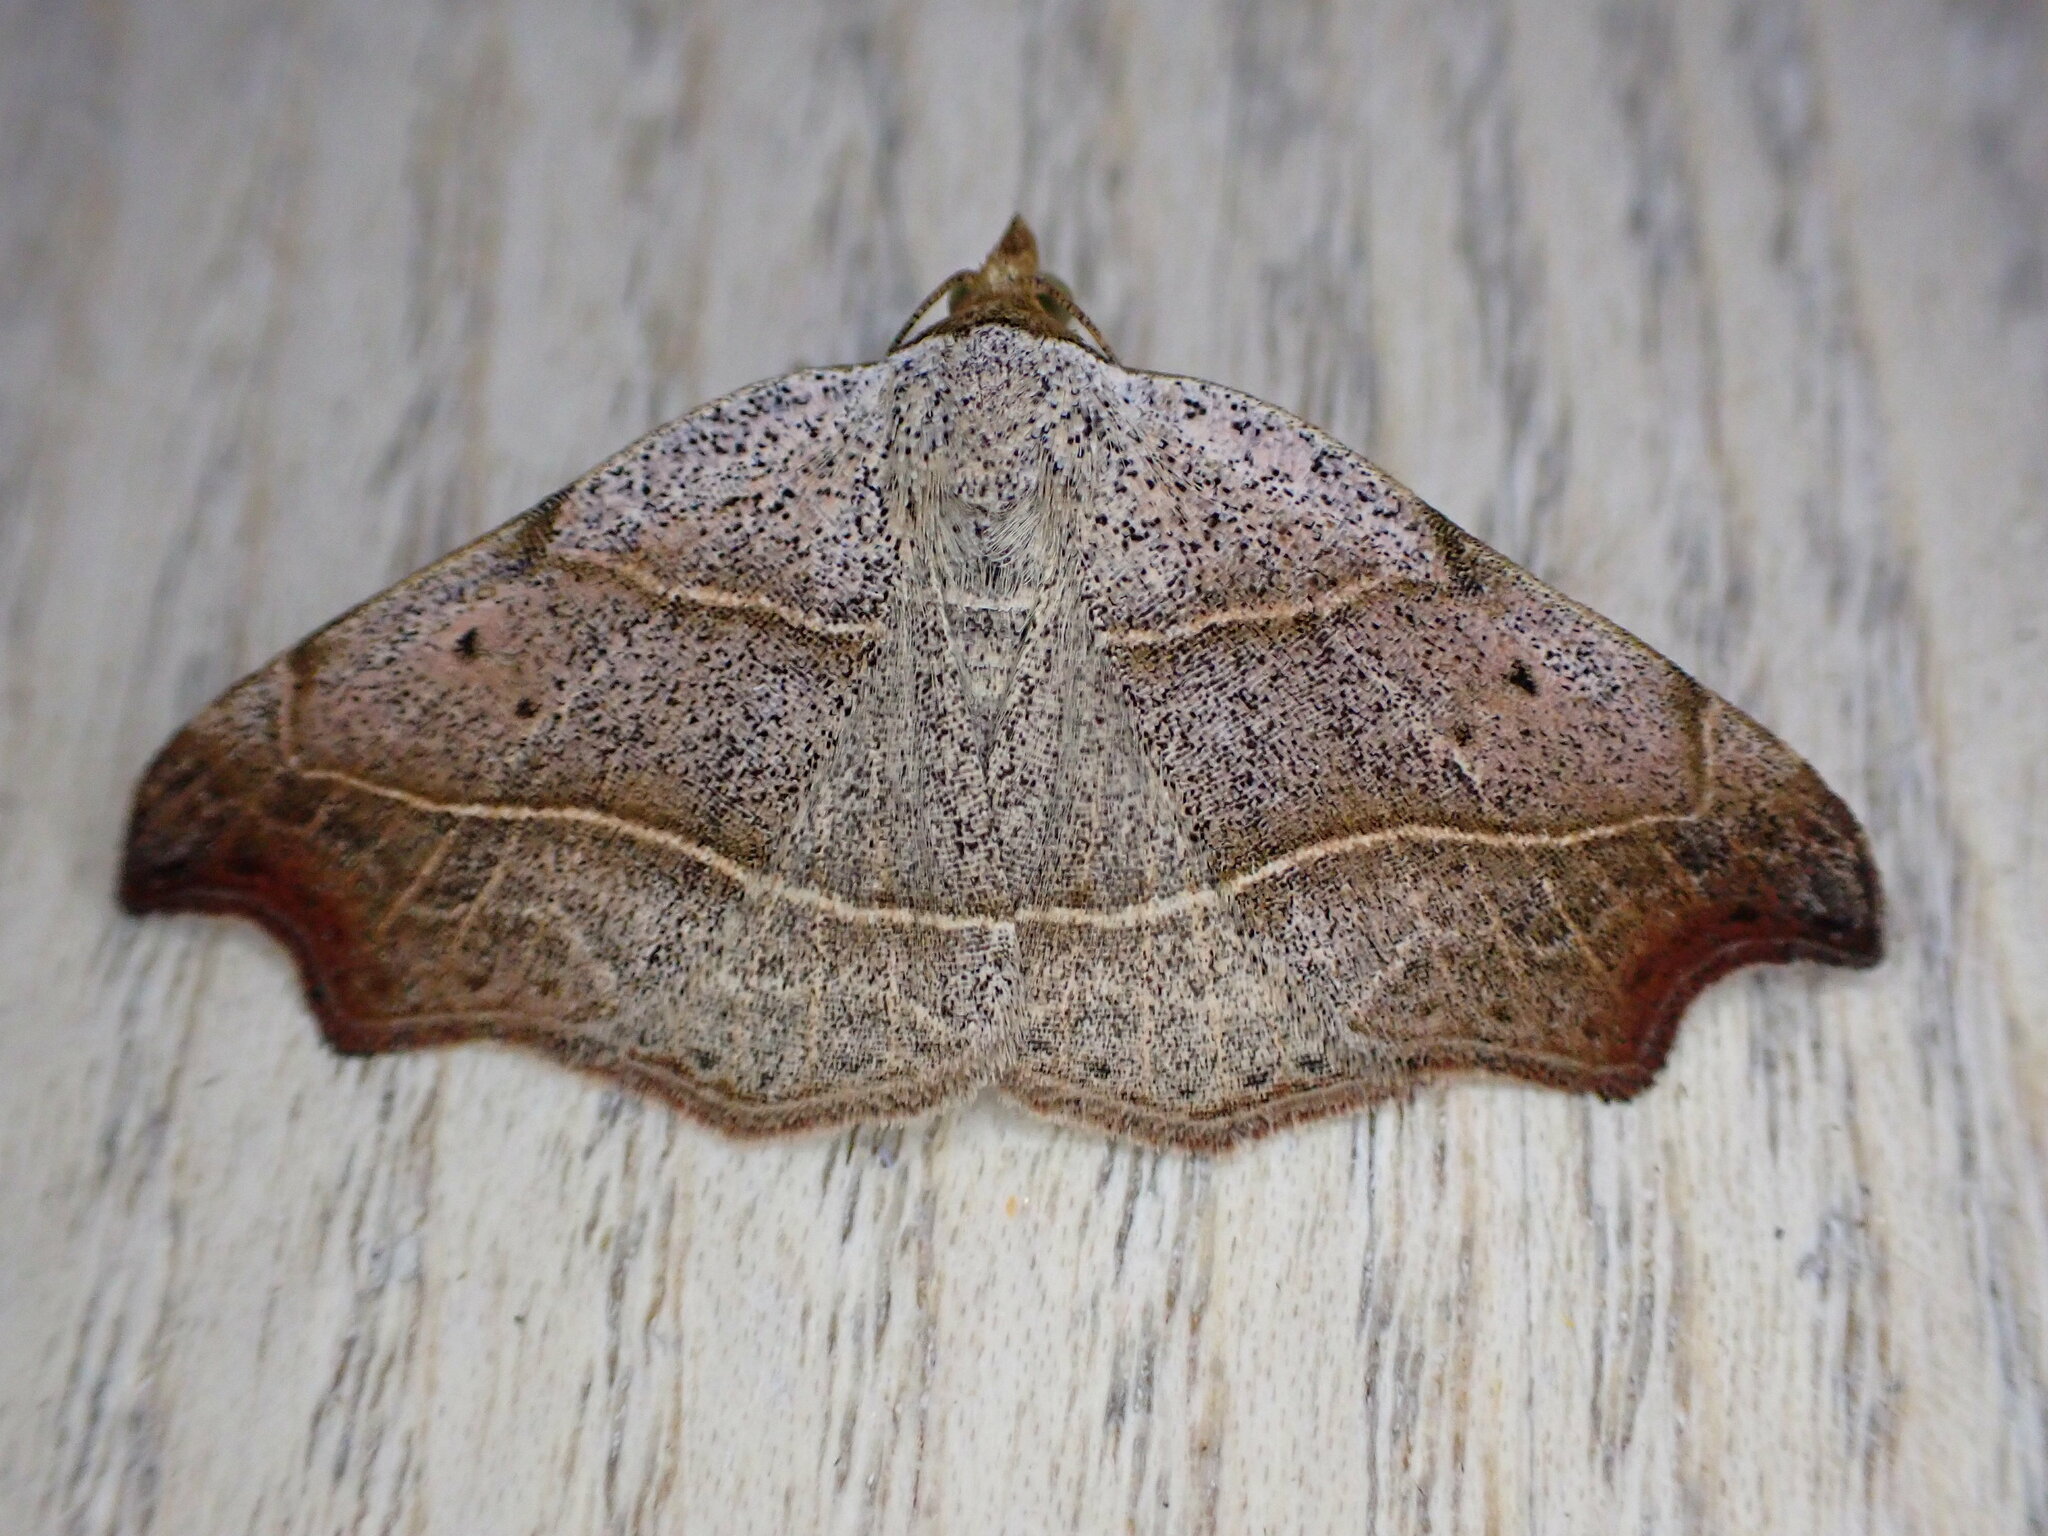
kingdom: Animalia
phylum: Arthropoda
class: Insecta
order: Lepidoptera
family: Erebidae
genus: Laspeyria
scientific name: Laspeyria flexula
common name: Beautiful hook-tip
